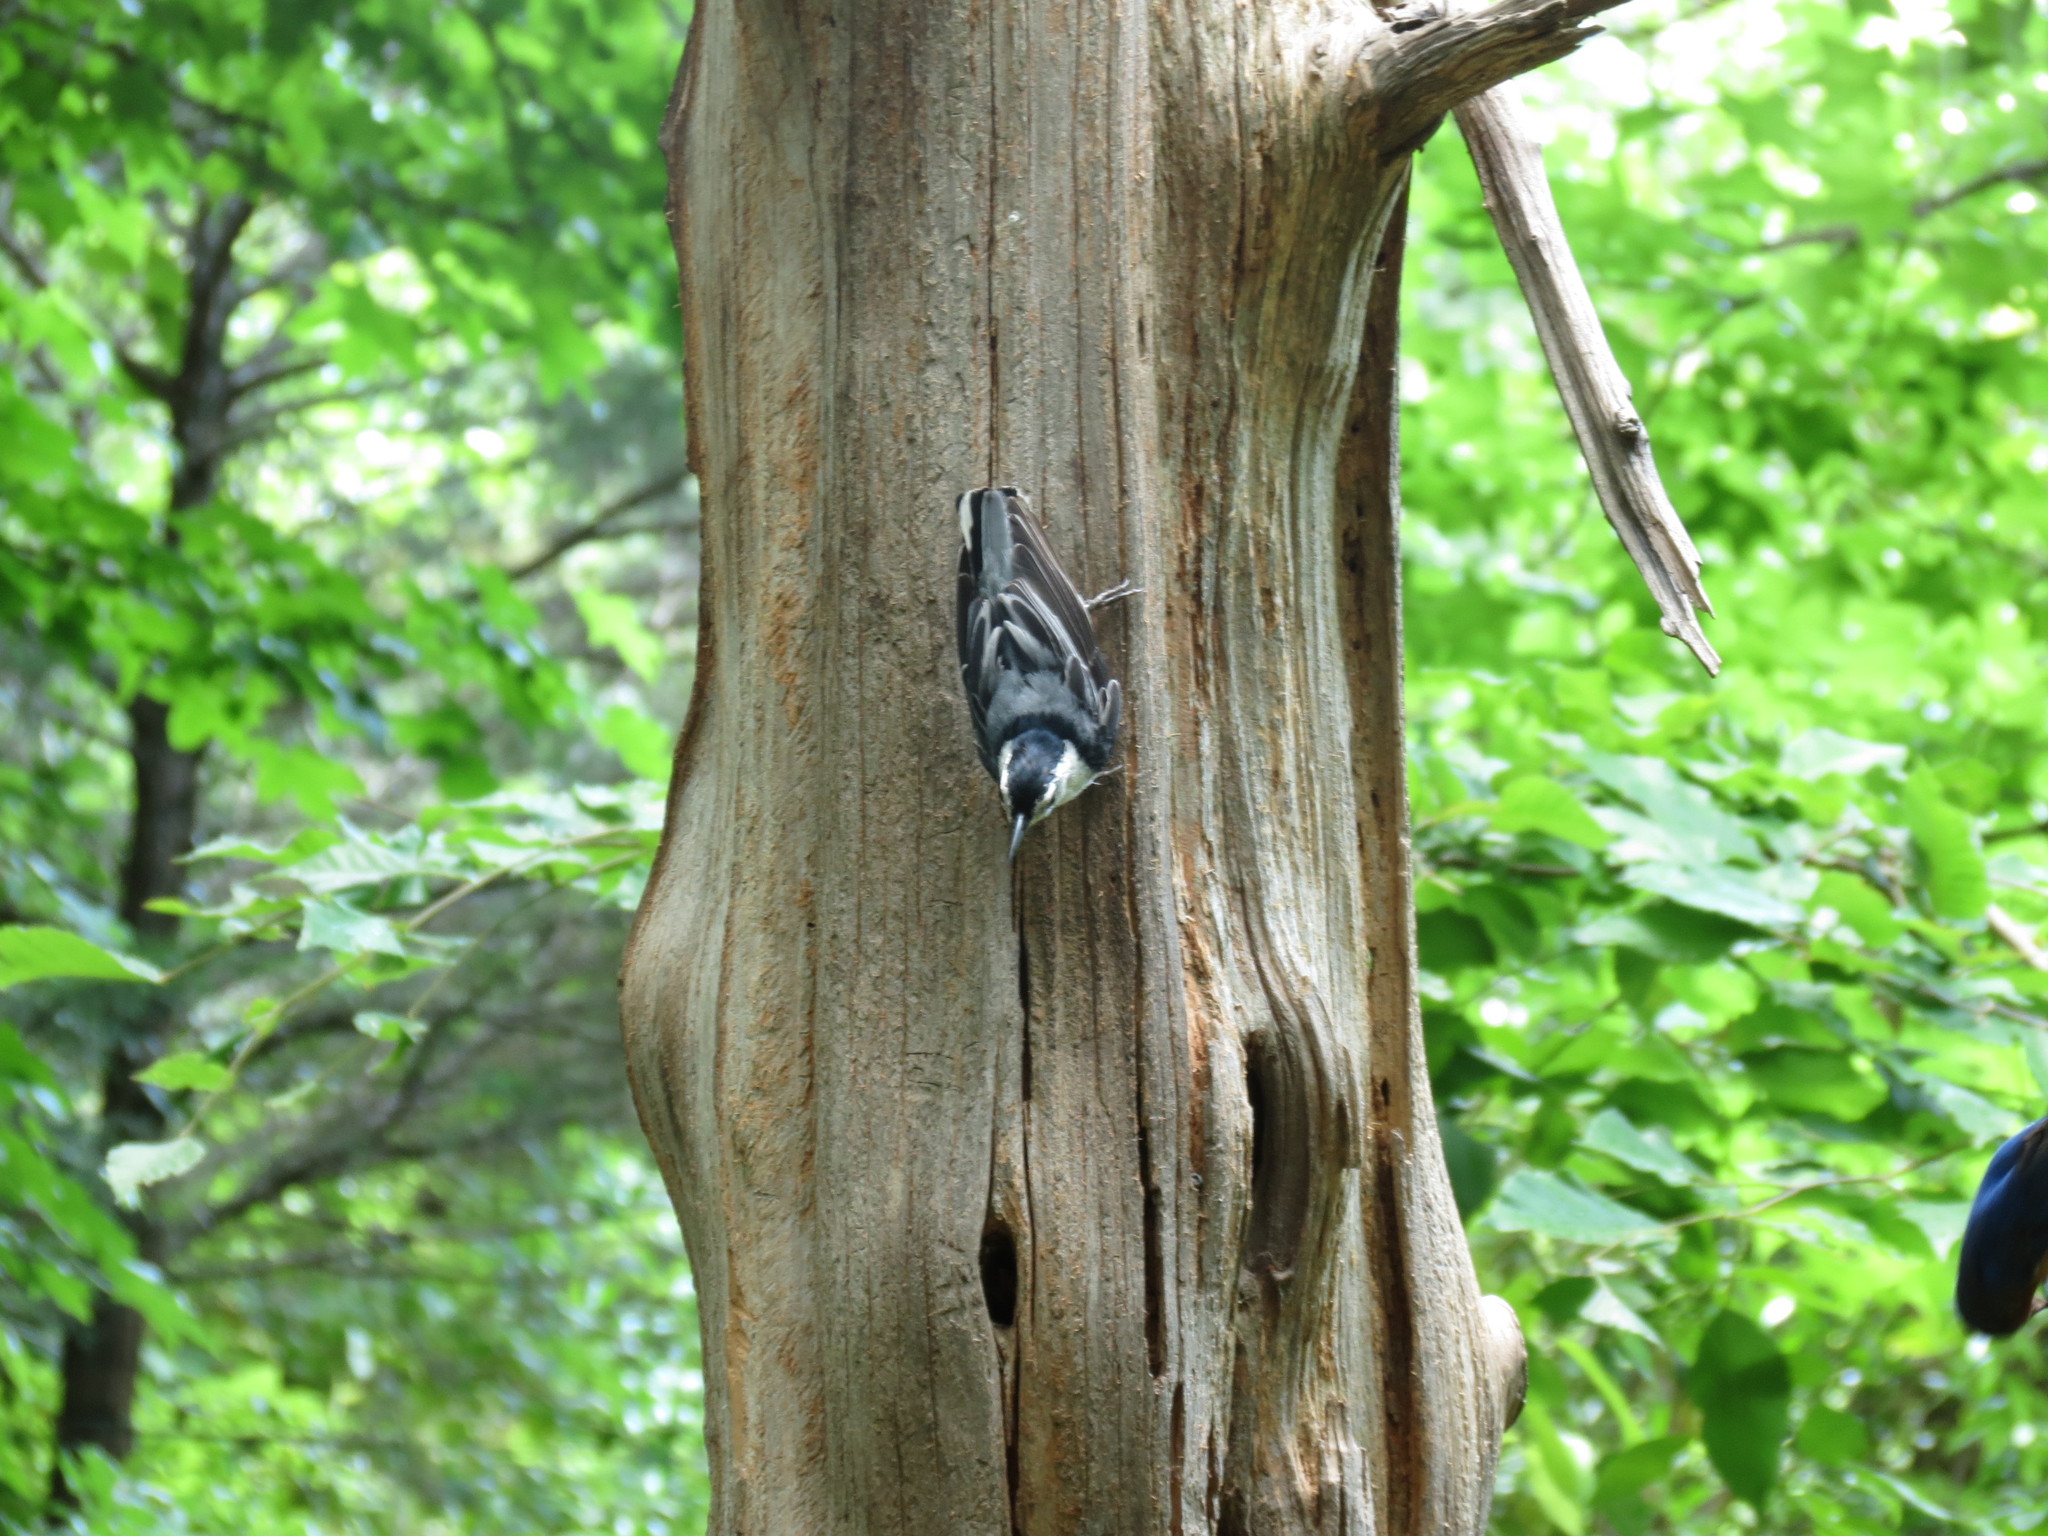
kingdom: Animalia
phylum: Chordata
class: Aves
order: Passeriformes
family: Sittidae
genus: Sitta
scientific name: Sitta carolinensis
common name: White-breasted nuthatch
